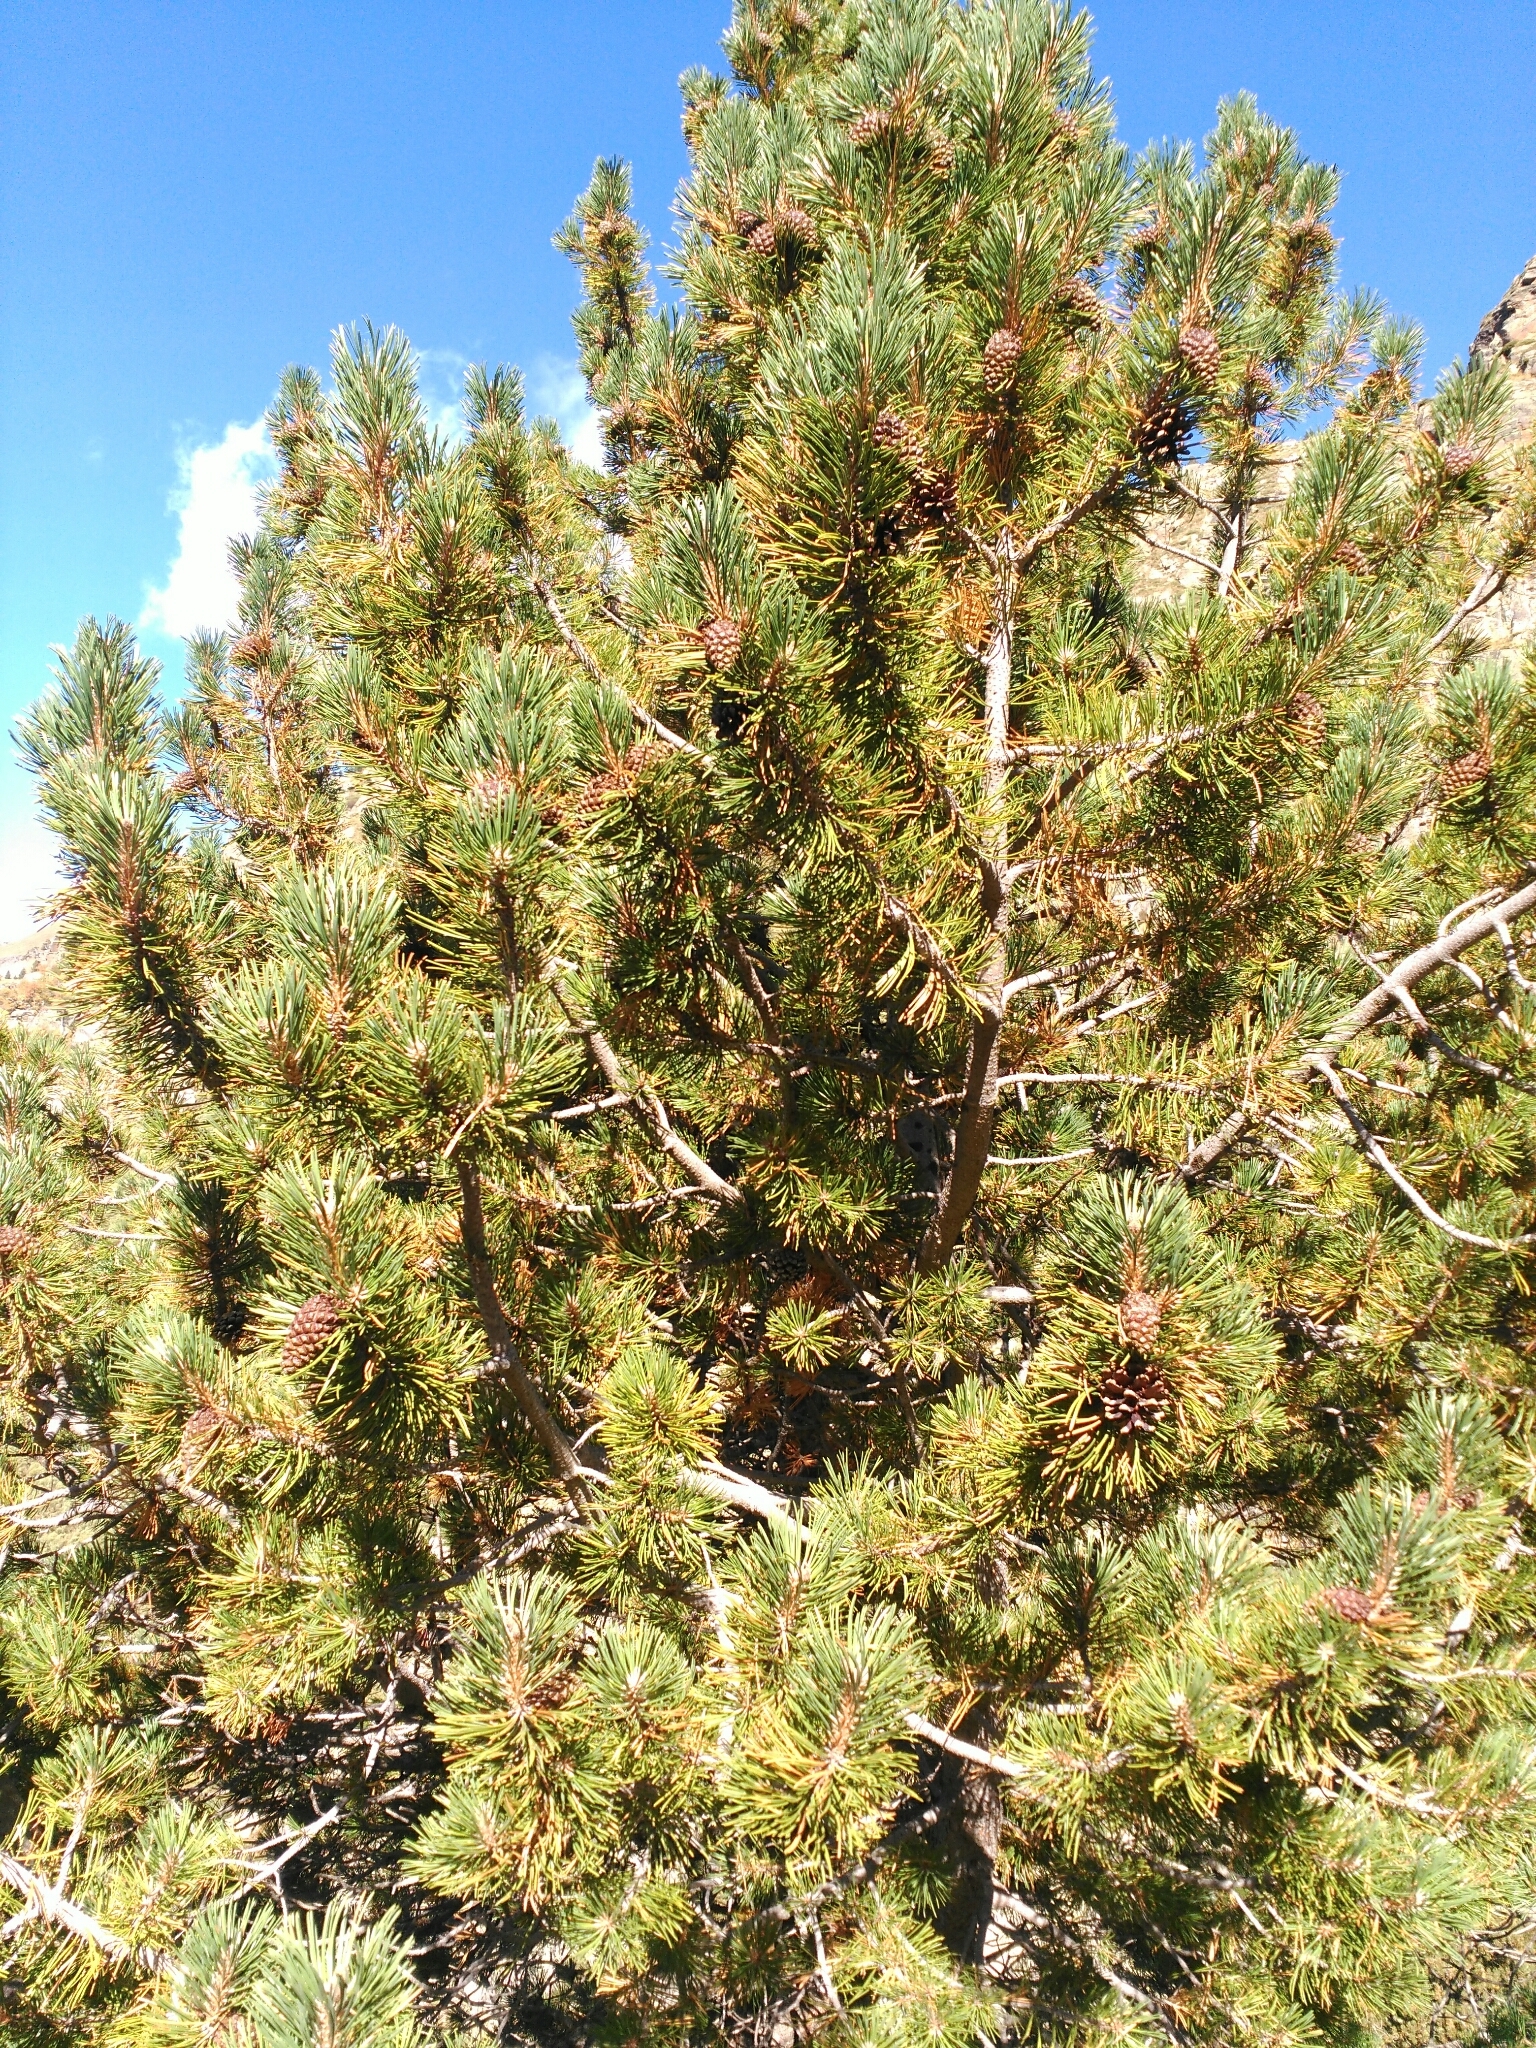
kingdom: Plantae
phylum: Tracheophyta
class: Pinopsida
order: Pinales
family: Pinaceae
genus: Pinus
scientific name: Pinus uncinata
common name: Mountain pine
